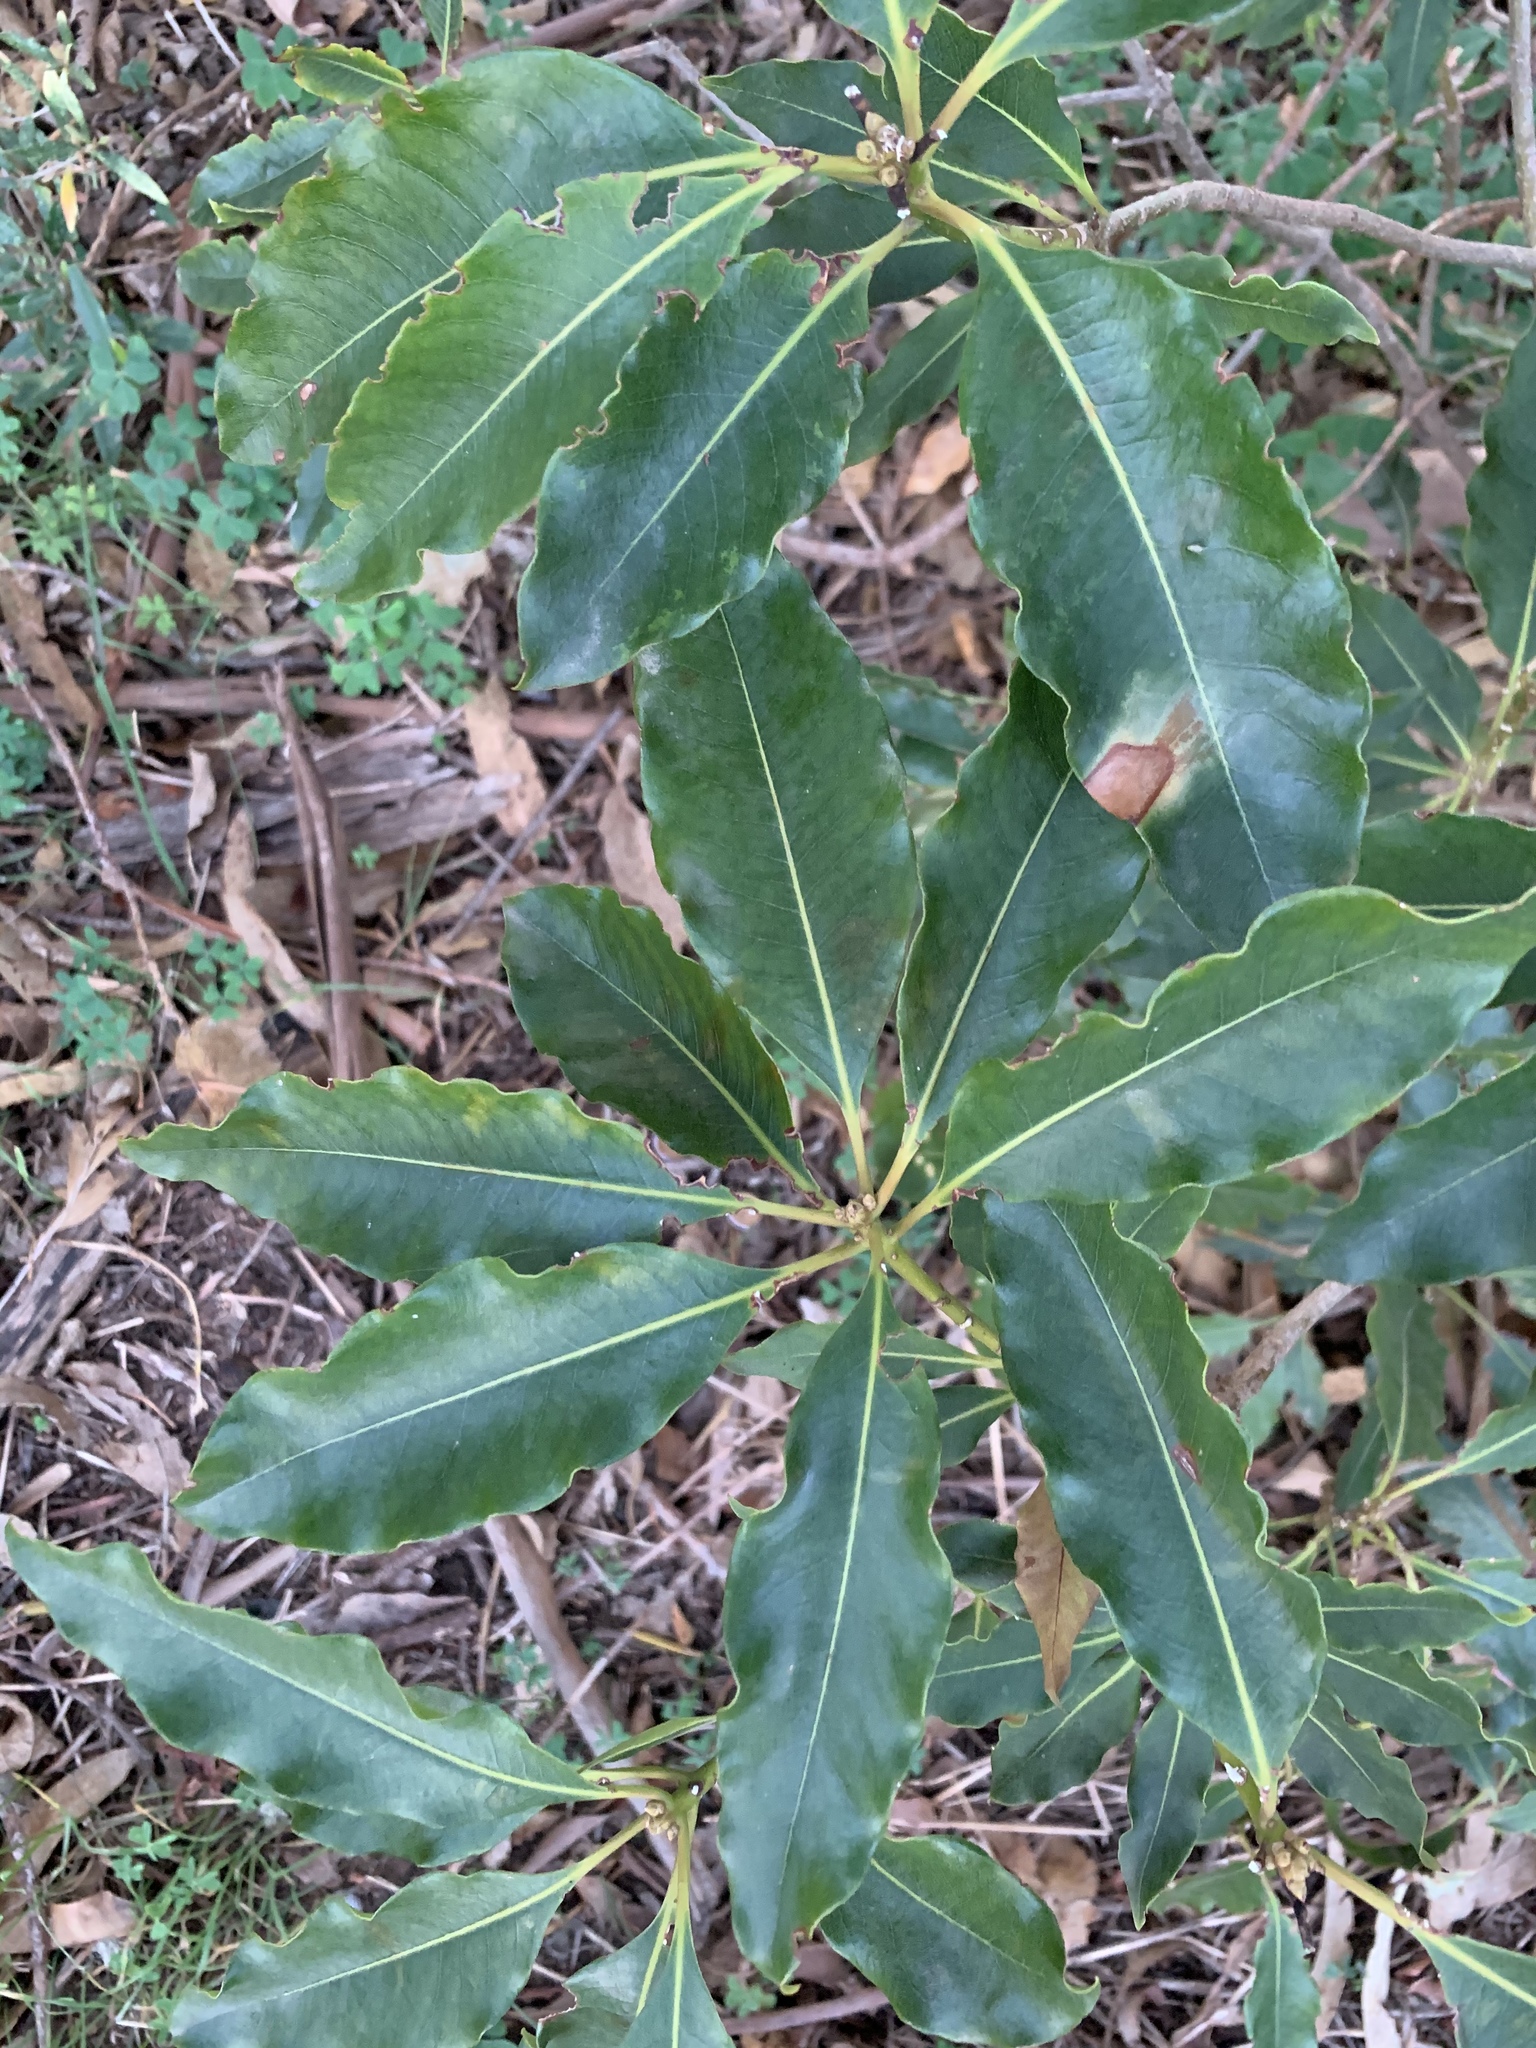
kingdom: Plantae
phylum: Tracheophyta
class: Magnoliopsida
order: Apiales
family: Pittosporaceae
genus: Pittosporum
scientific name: Pittosporum undulatum
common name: Australian cheesewood
